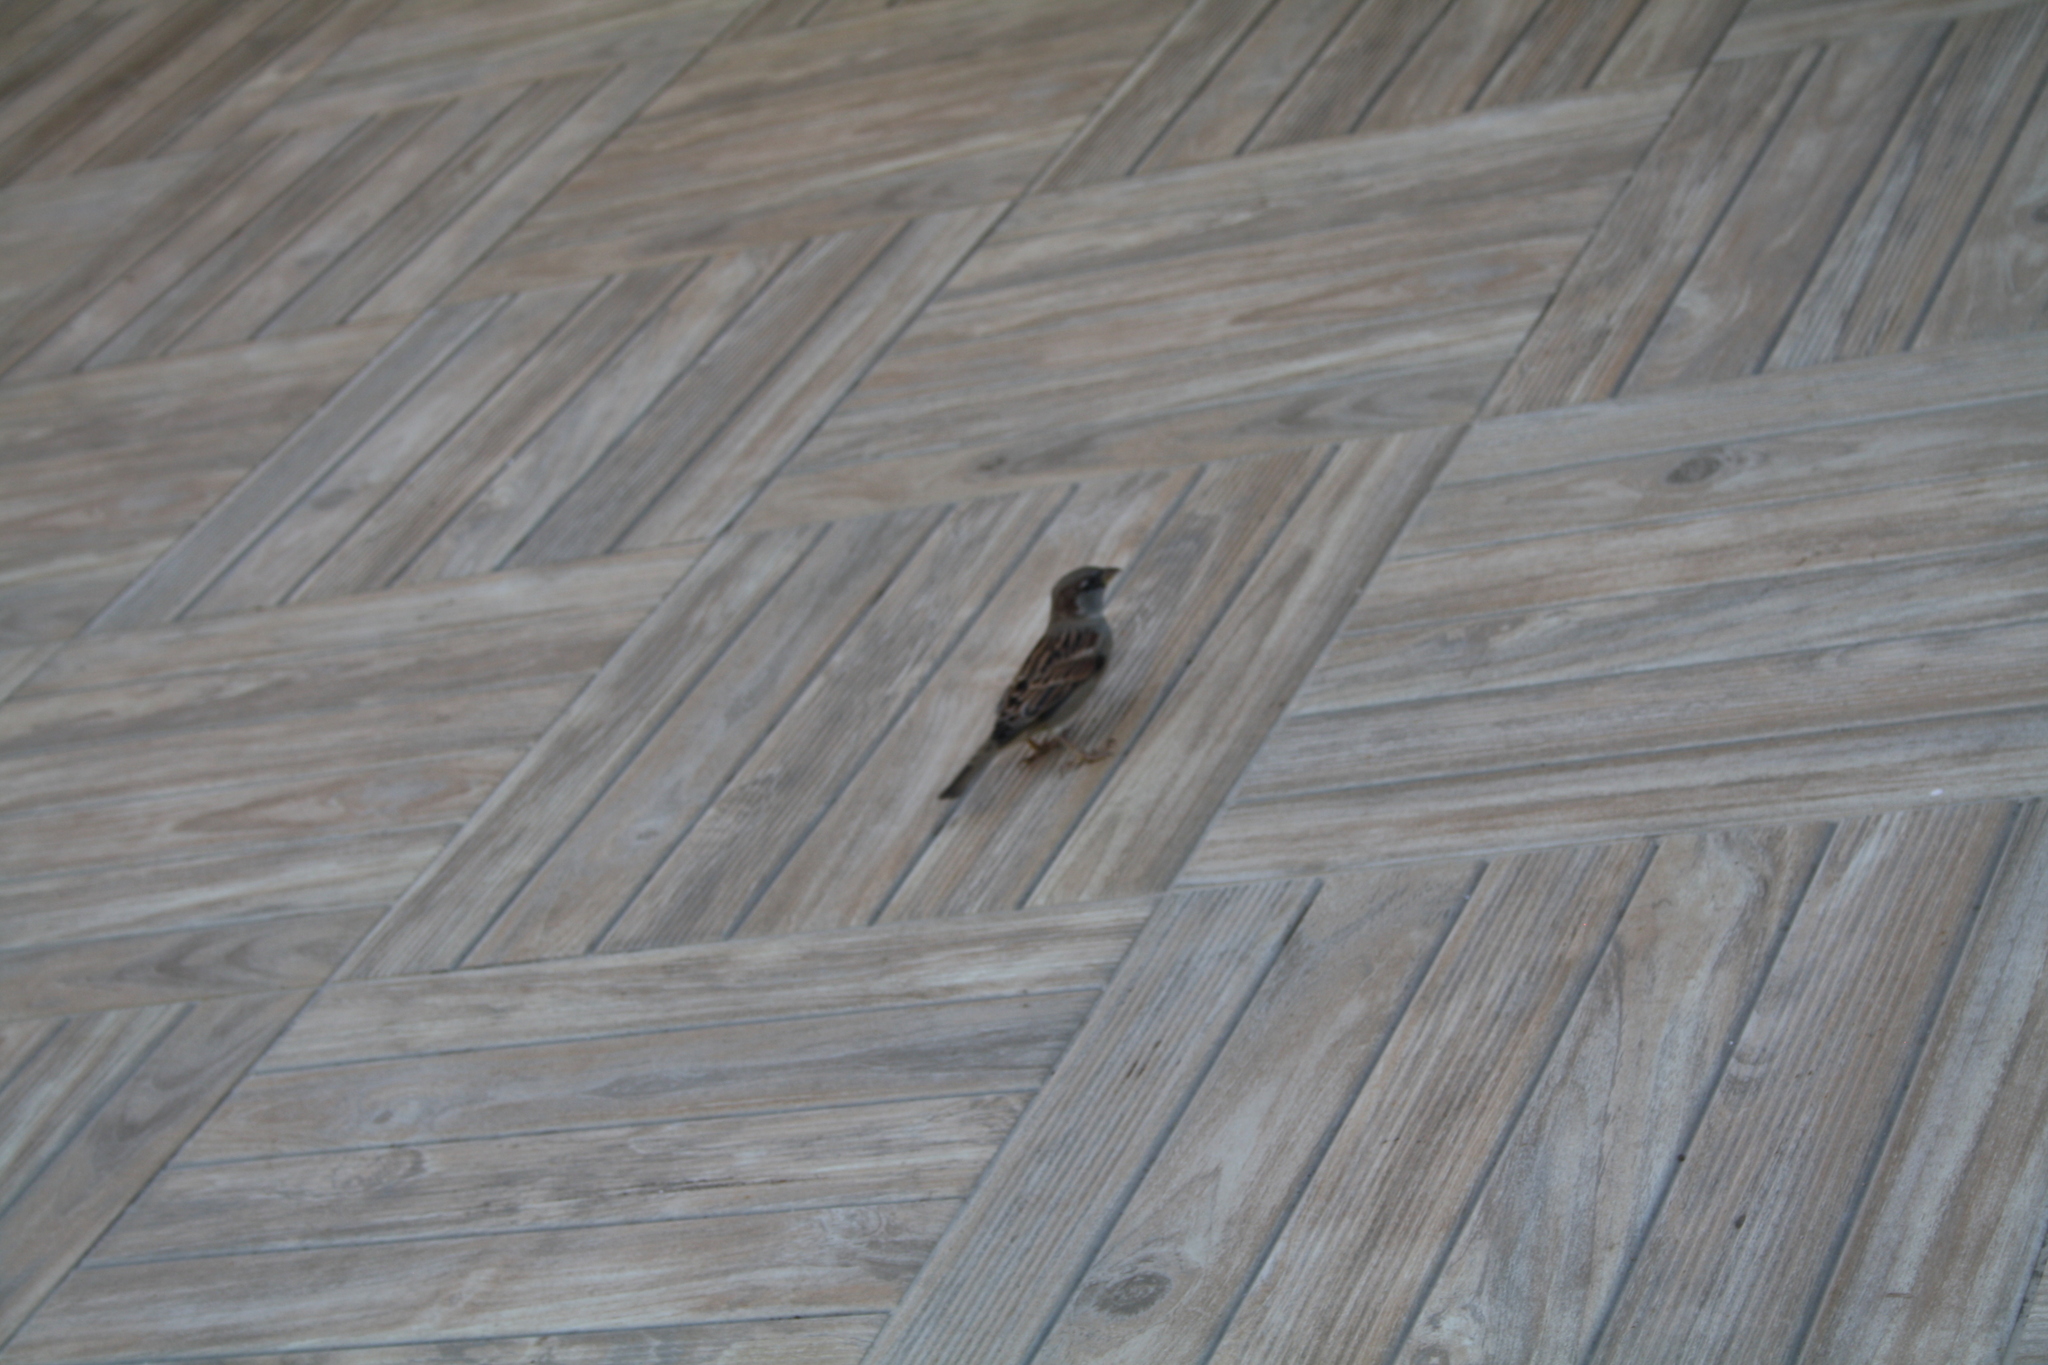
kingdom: Animalia
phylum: Chordata
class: Aves
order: Passeriformes
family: Passeridae
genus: Passer
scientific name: Passer domesticus
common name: House sparrow
